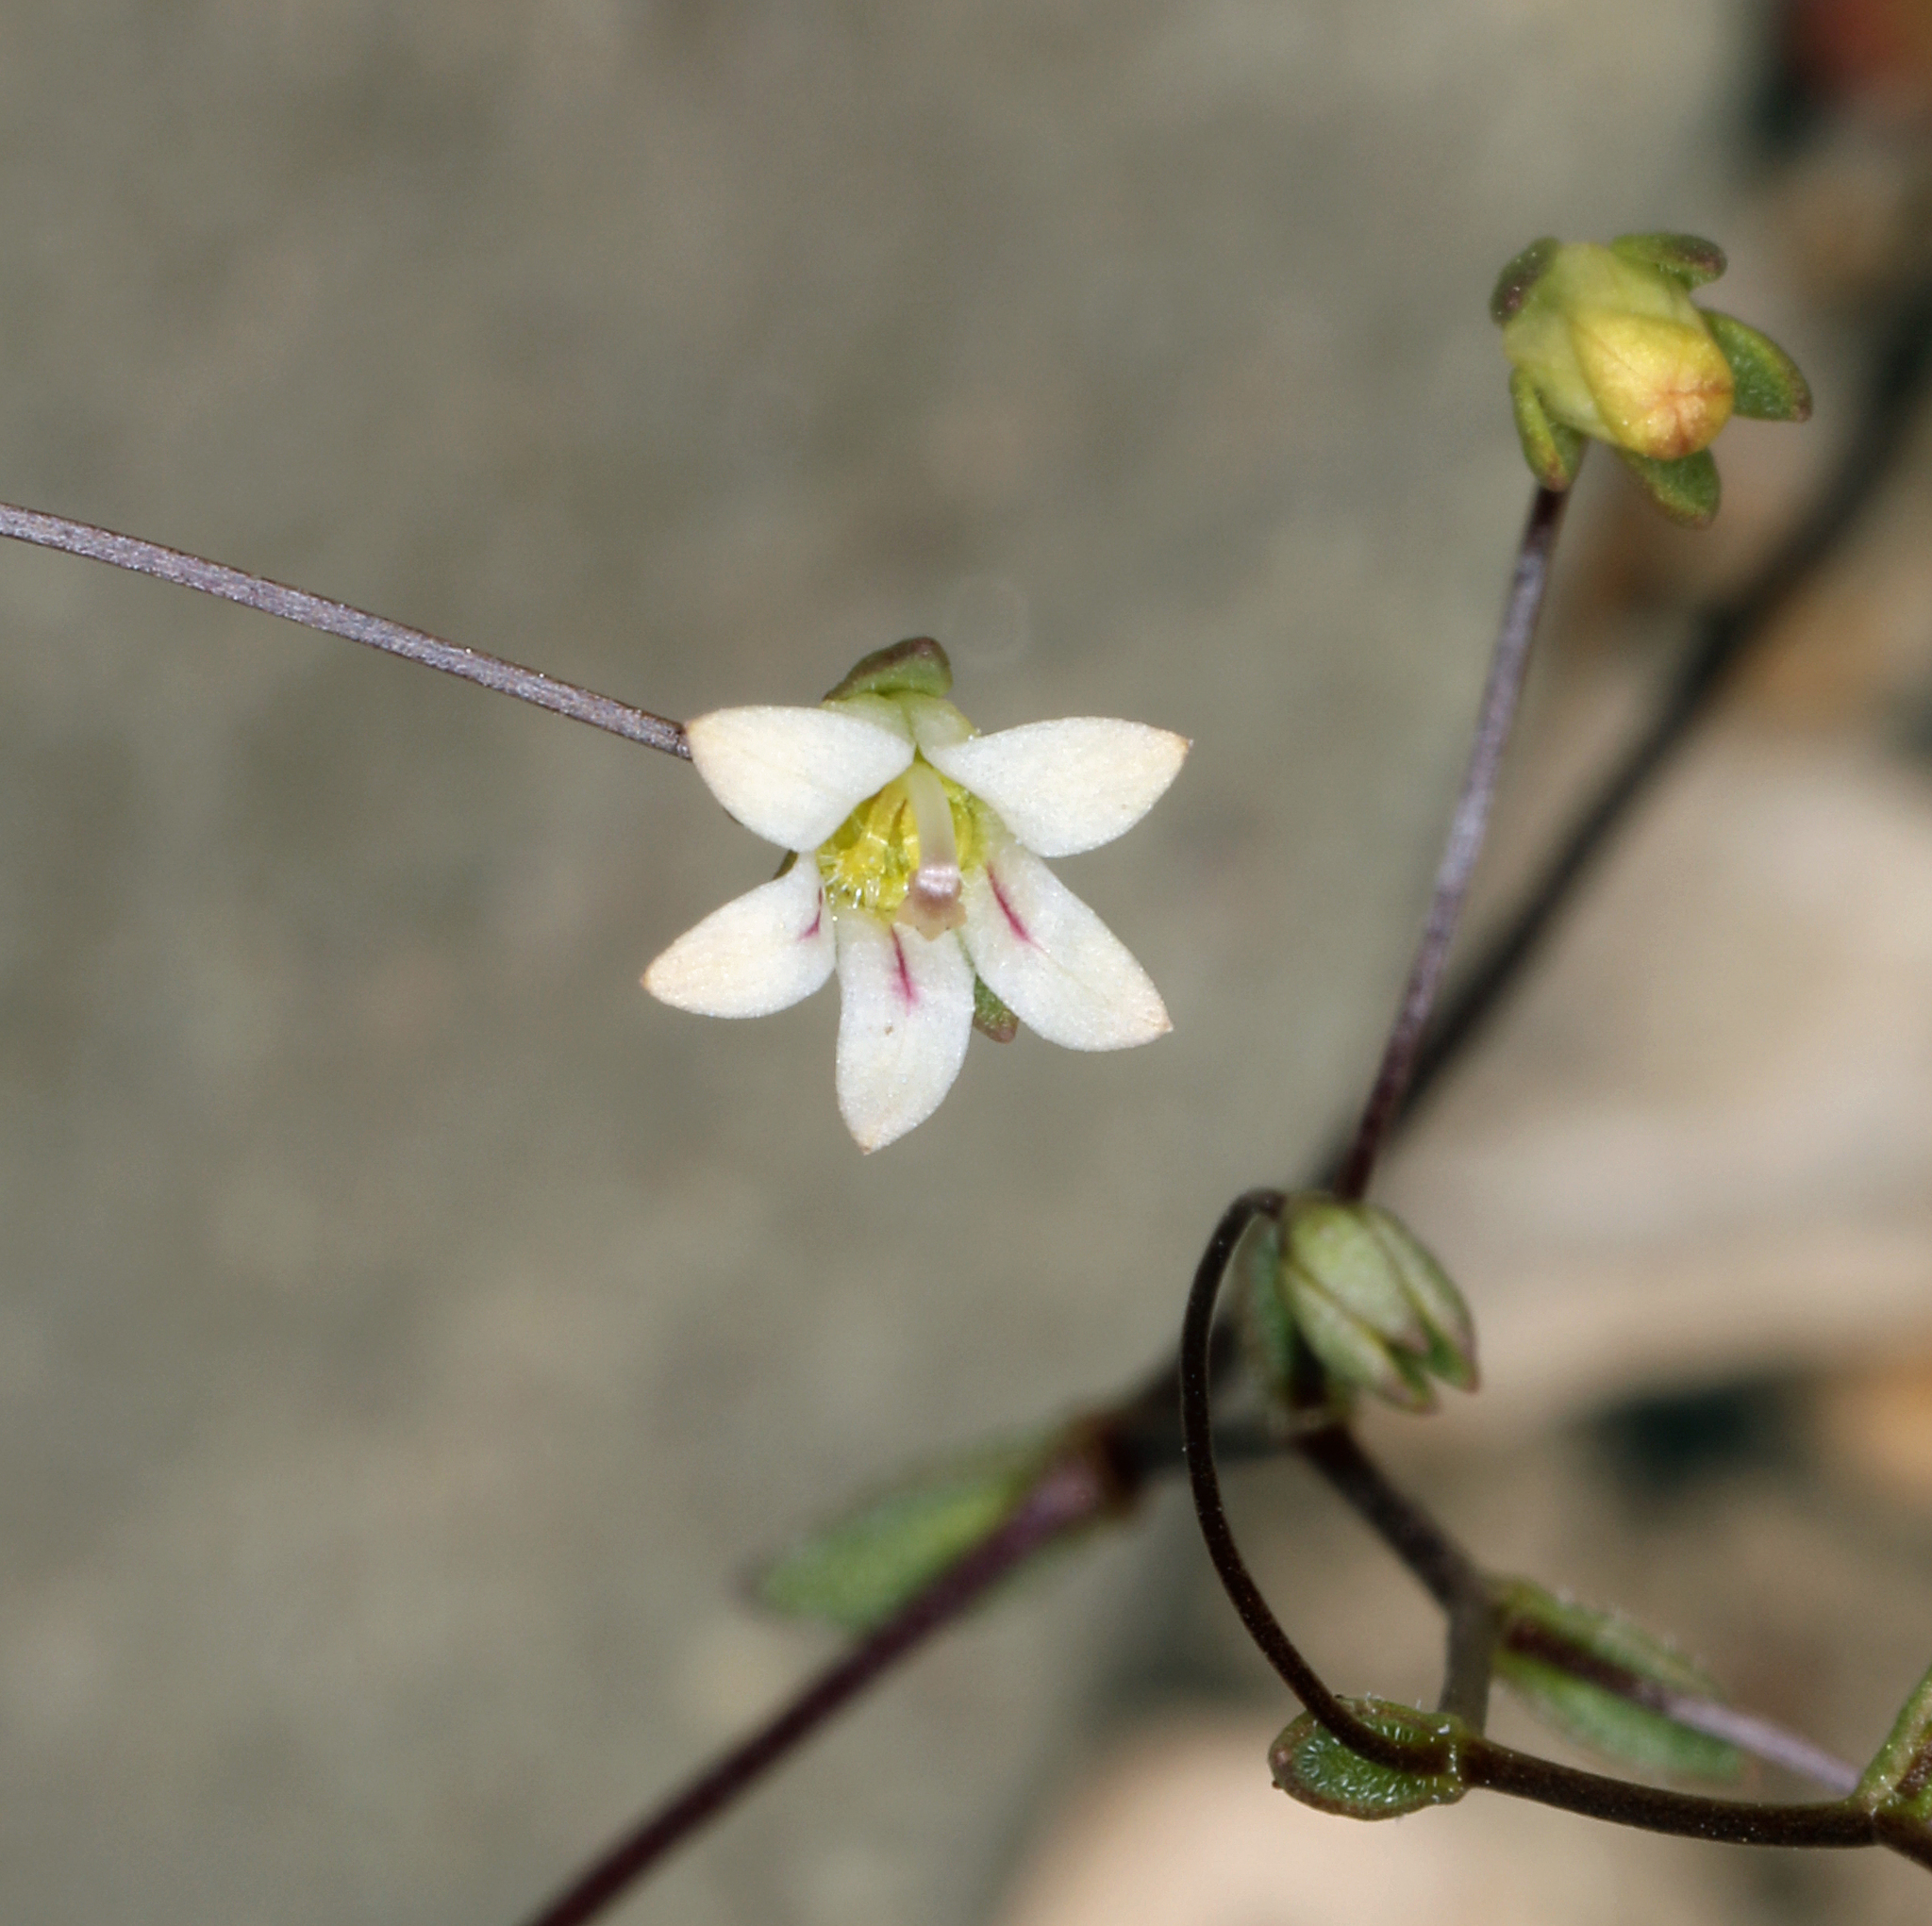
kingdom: Plantae
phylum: Tracheophyta
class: Magnoliopsida
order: Asterales
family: Campanulaceae
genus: Nemacladus
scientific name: Nemacladus inyoensis
